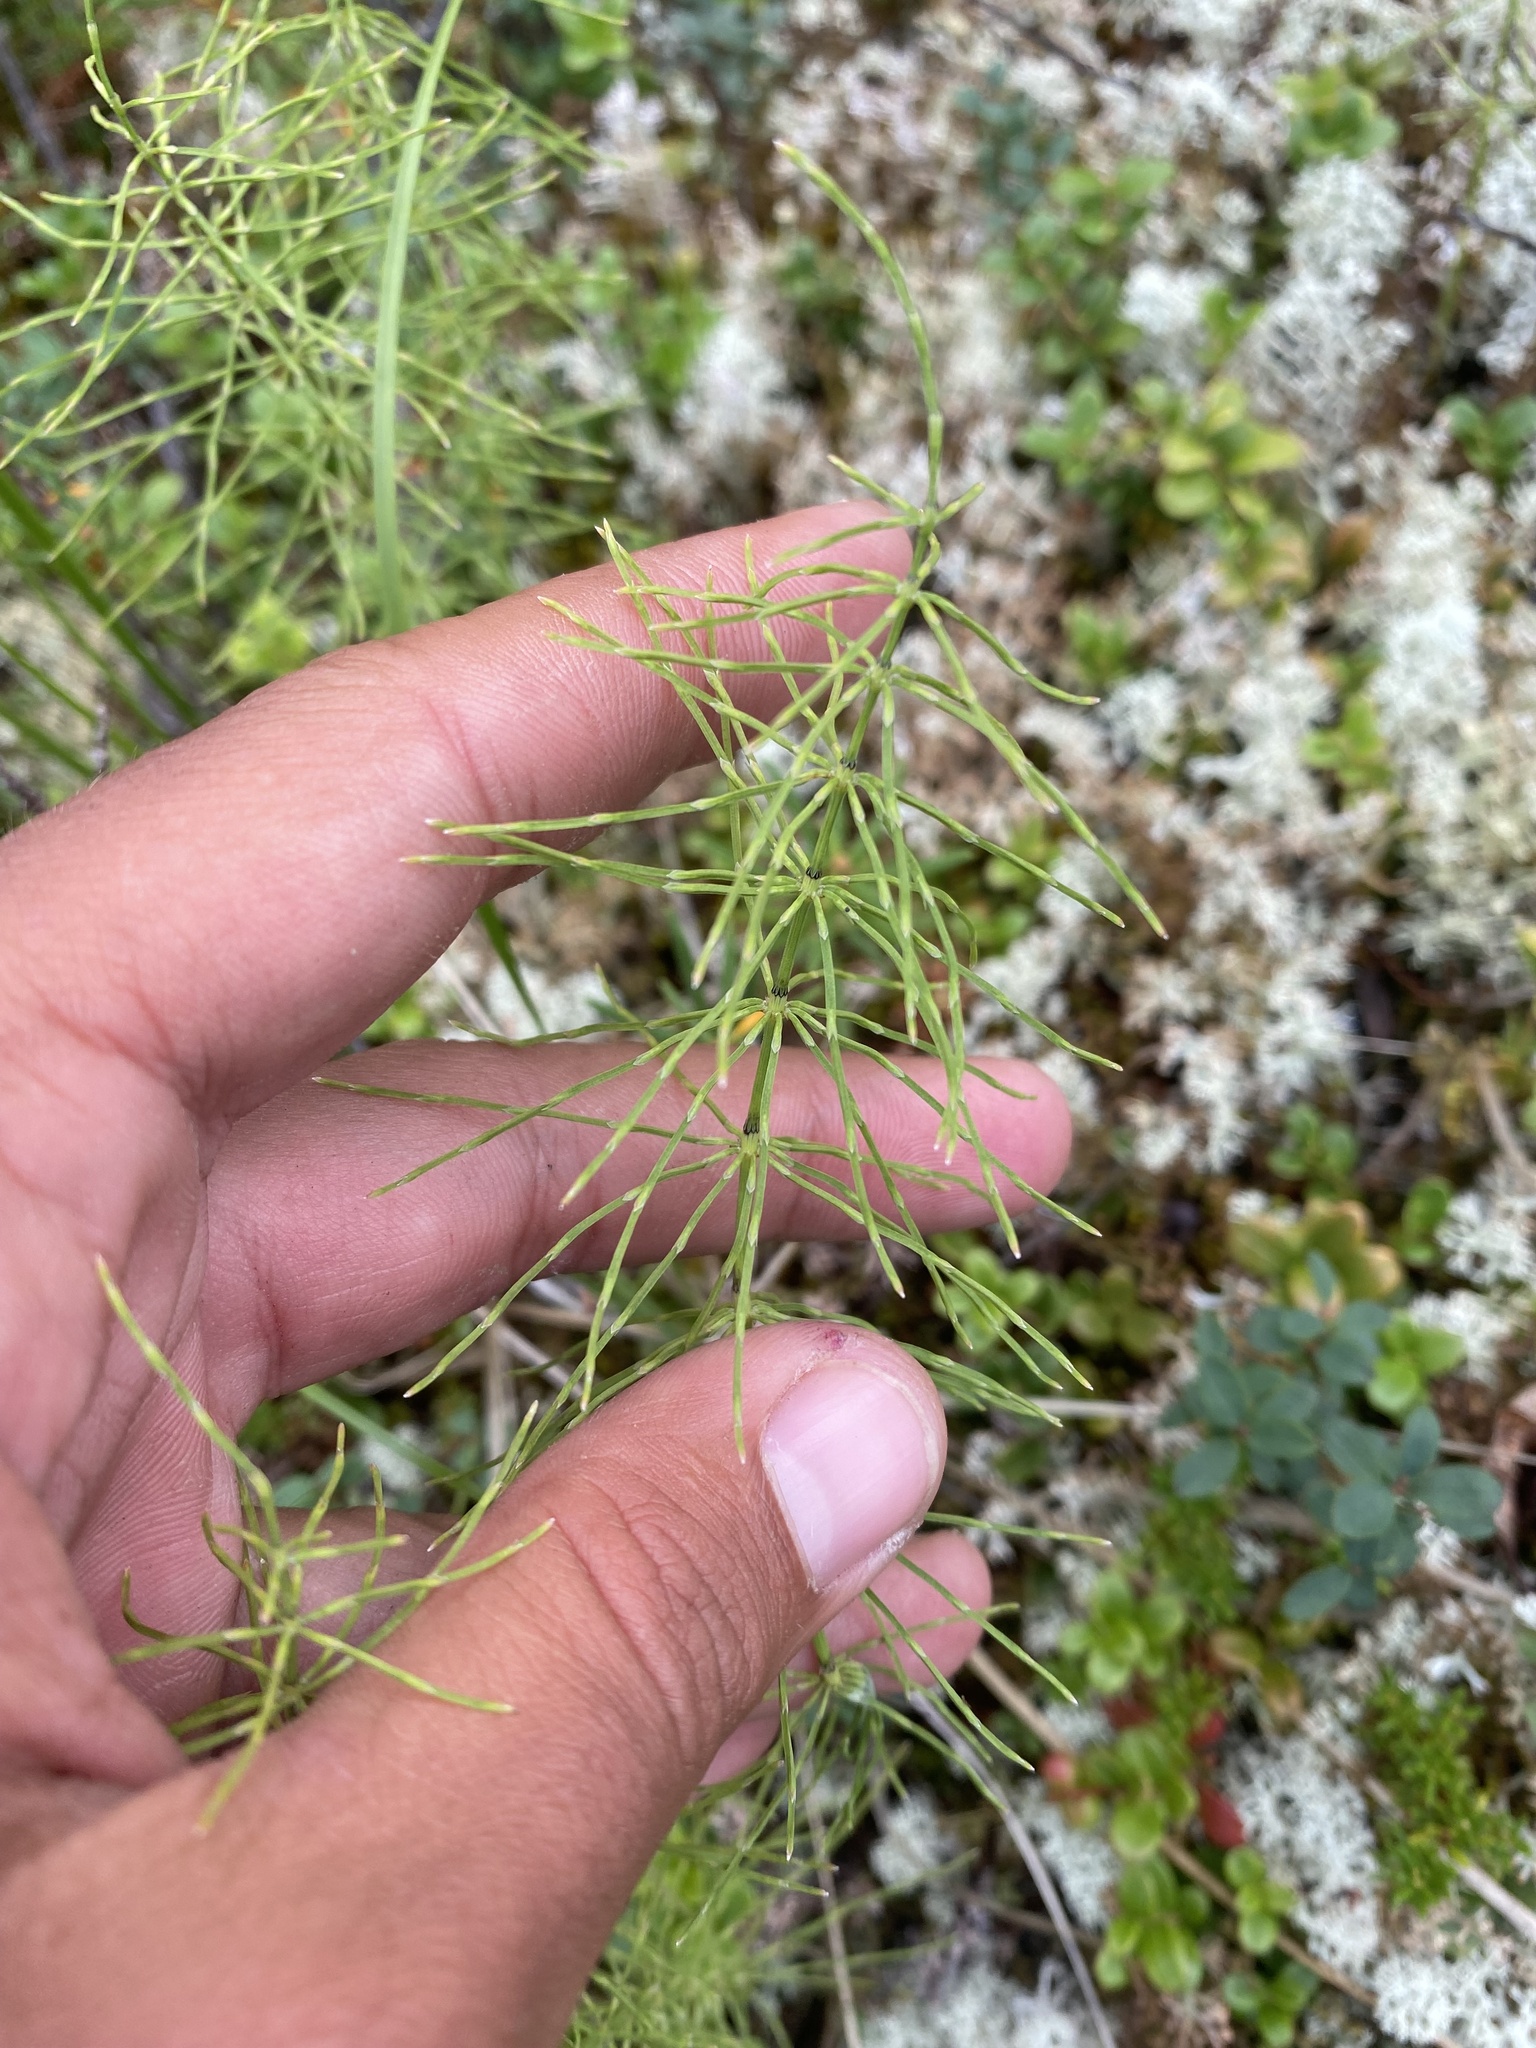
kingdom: Plantae
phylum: Tracheophyta
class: Polypodiopsida
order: Equisetales
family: Equisetaceae
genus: Equisetum
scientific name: Equisetum pratense
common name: Meadow horsetail
